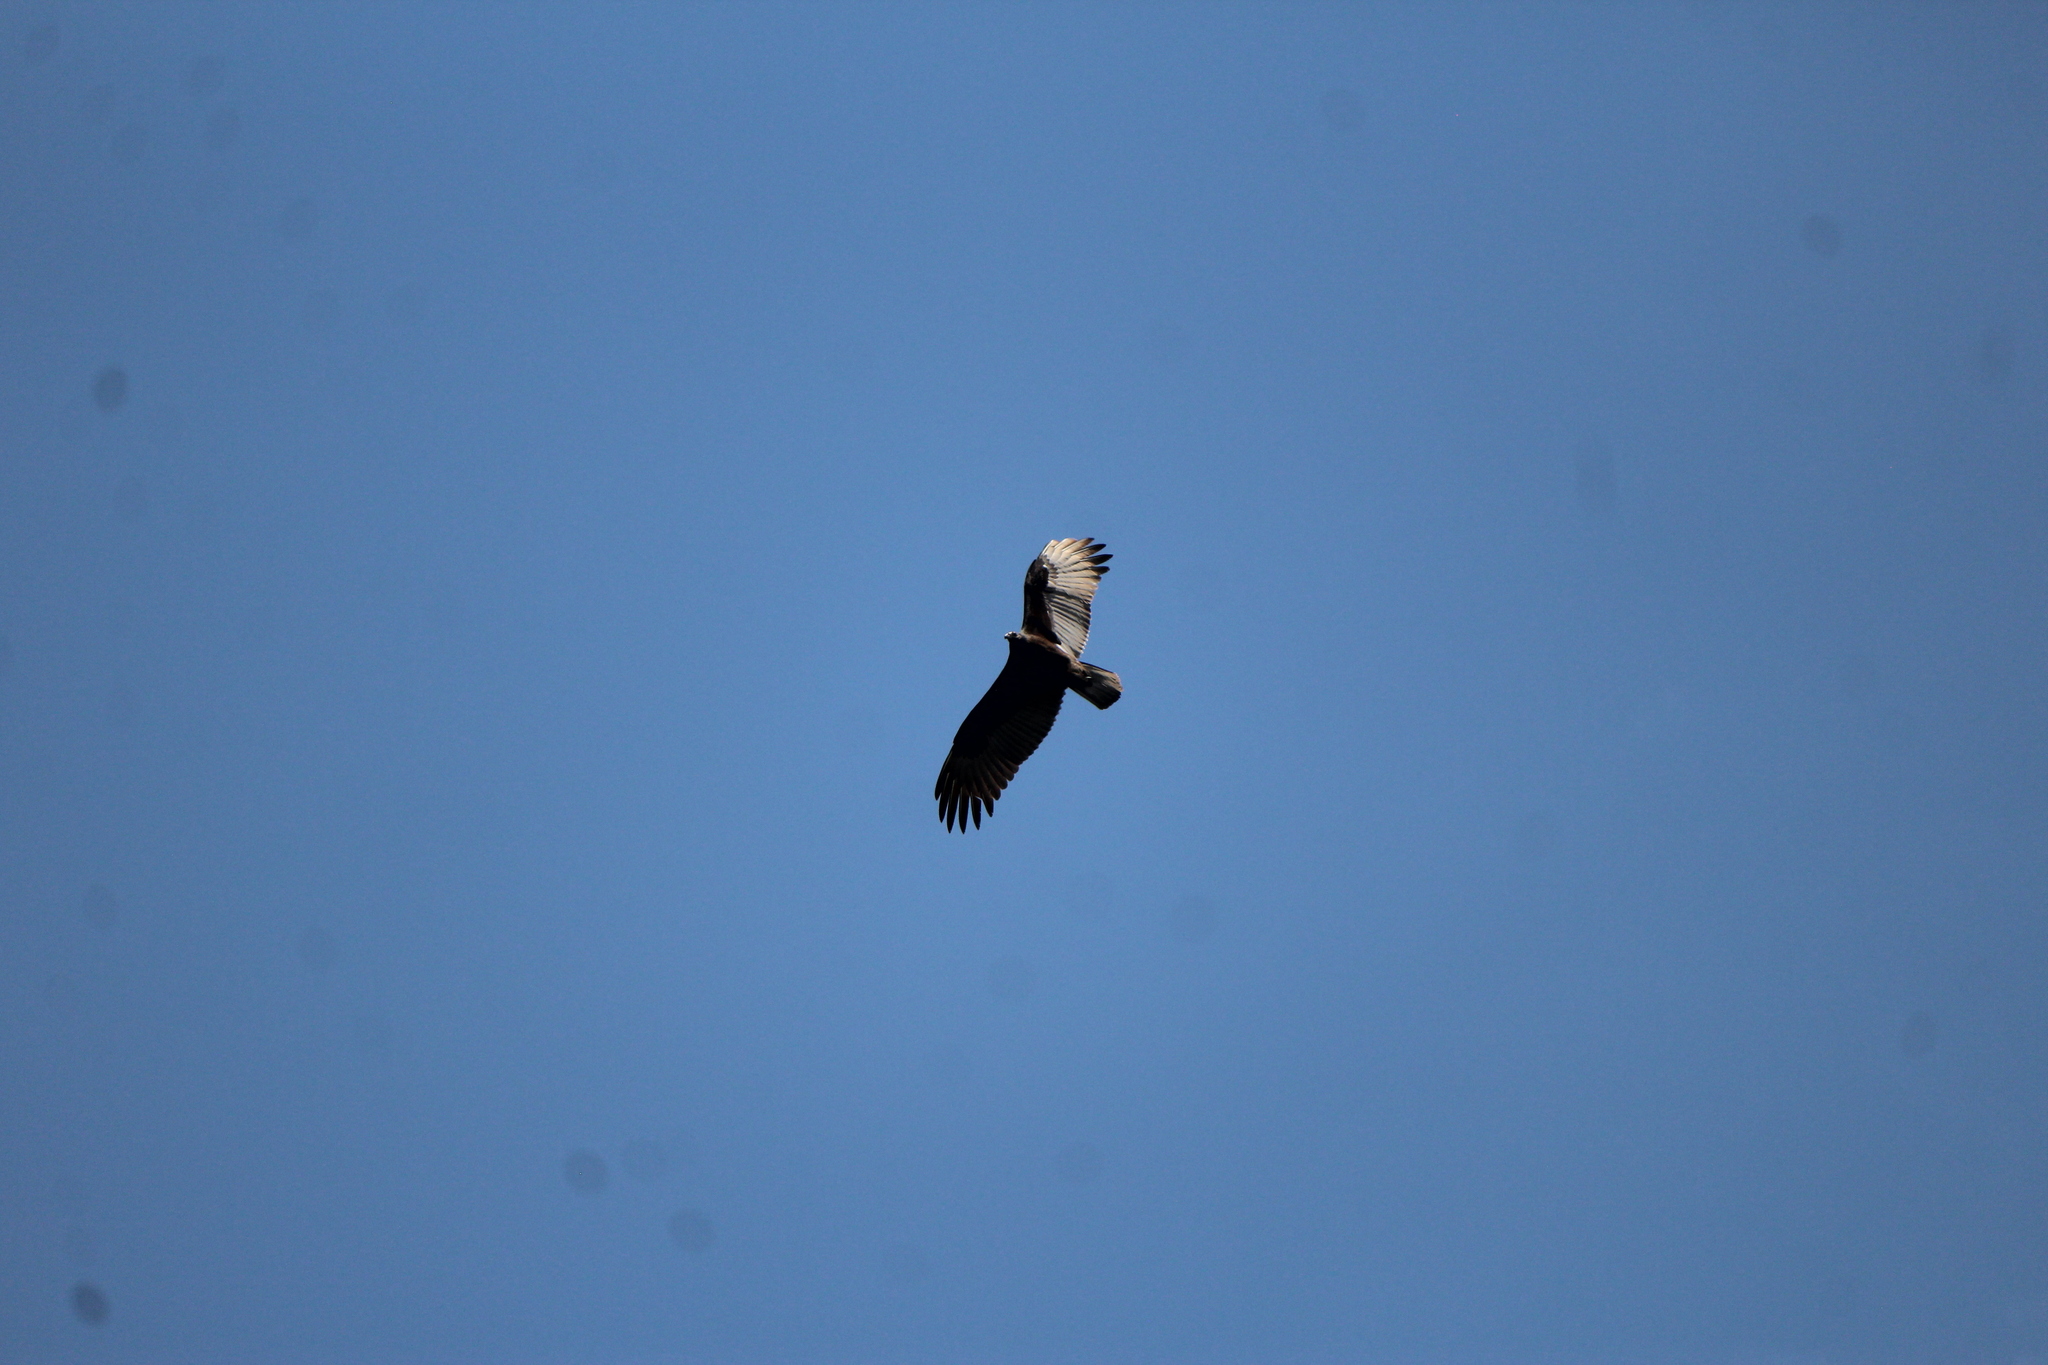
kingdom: Animalia
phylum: Chordata
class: Aves
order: Accipitriformes
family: Cathartidae
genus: Cathartes
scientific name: Cathartes aura
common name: Turkey vulture
